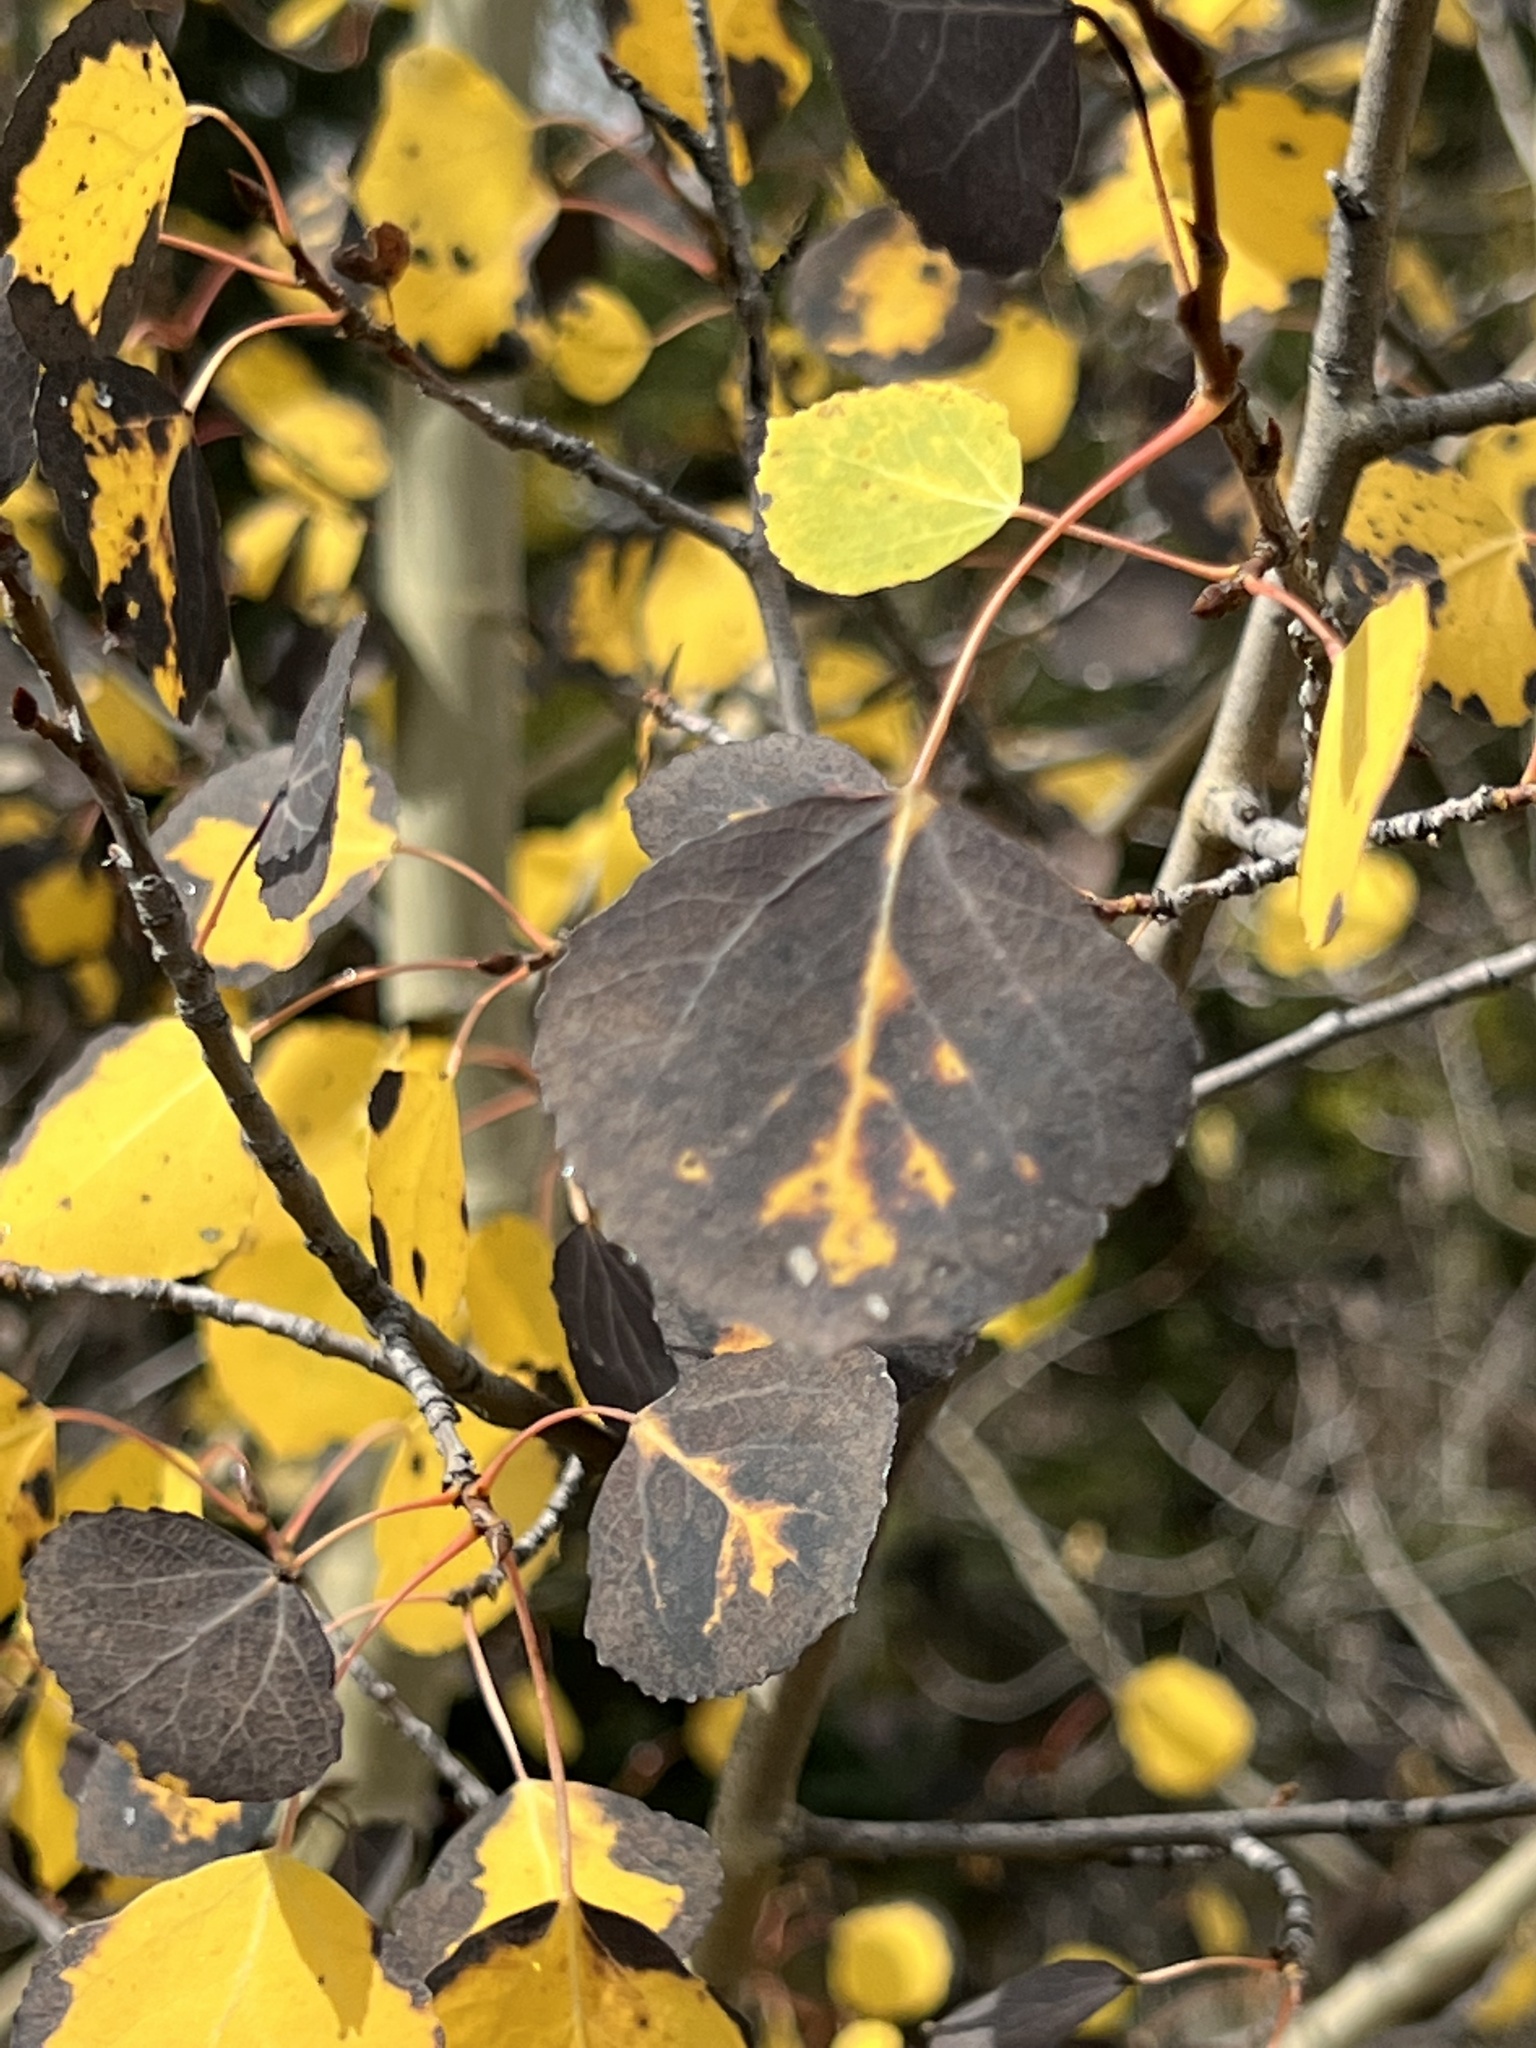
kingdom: Plantae
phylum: Tracheophyta
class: Magnoliopsida
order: Malpighiales
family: Salicaceae
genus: Populus
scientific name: Populus tremuloides
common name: Quaking aspen
